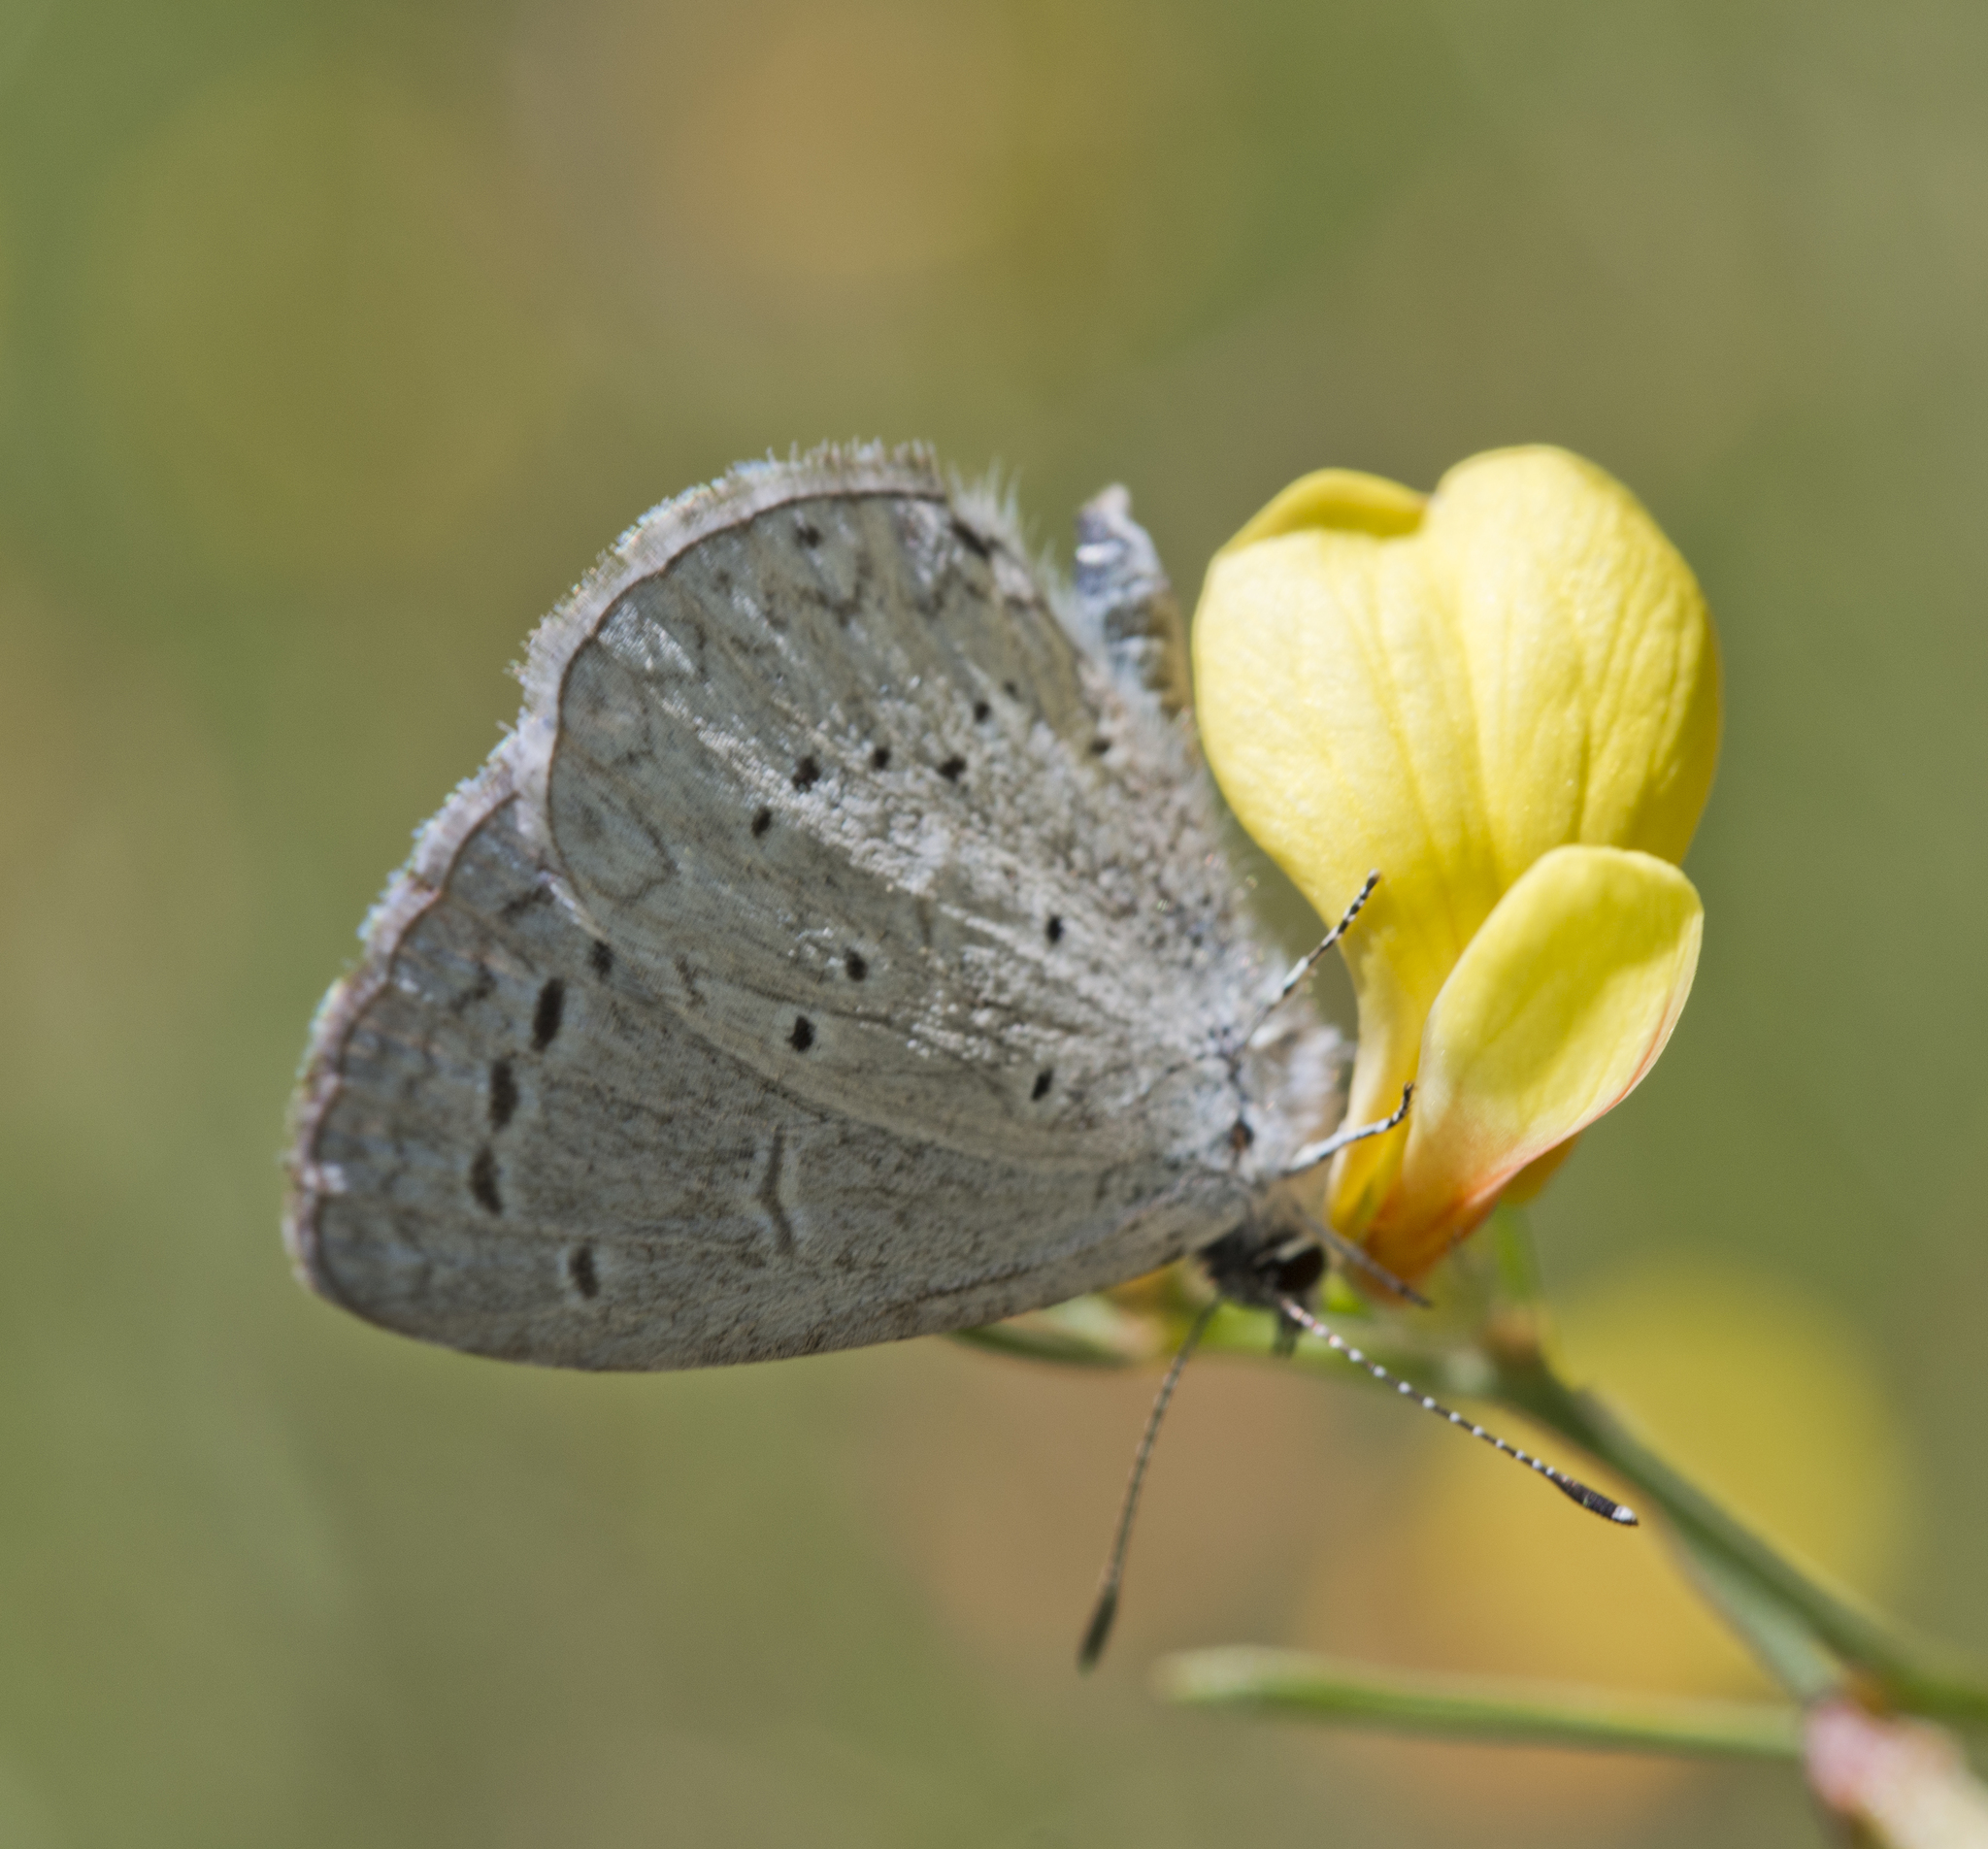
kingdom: Animalia
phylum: Arthropoda
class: Insecta
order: Lepidoptera
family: Lycaenidae
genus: Celastrina
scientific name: Celastrina argiolus
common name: Holly blue
